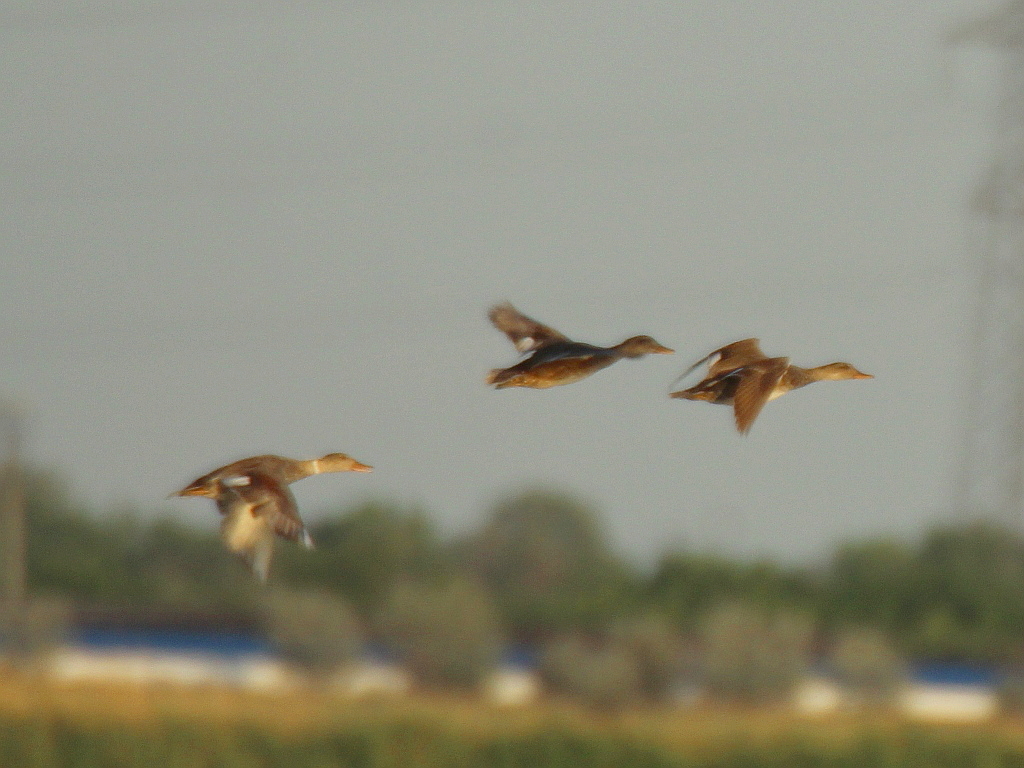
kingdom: Animalia
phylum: Chordata
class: Aves
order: Anseriformes
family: Anatidae
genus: Mareca
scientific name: Mareca strepera
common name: Gadwall
